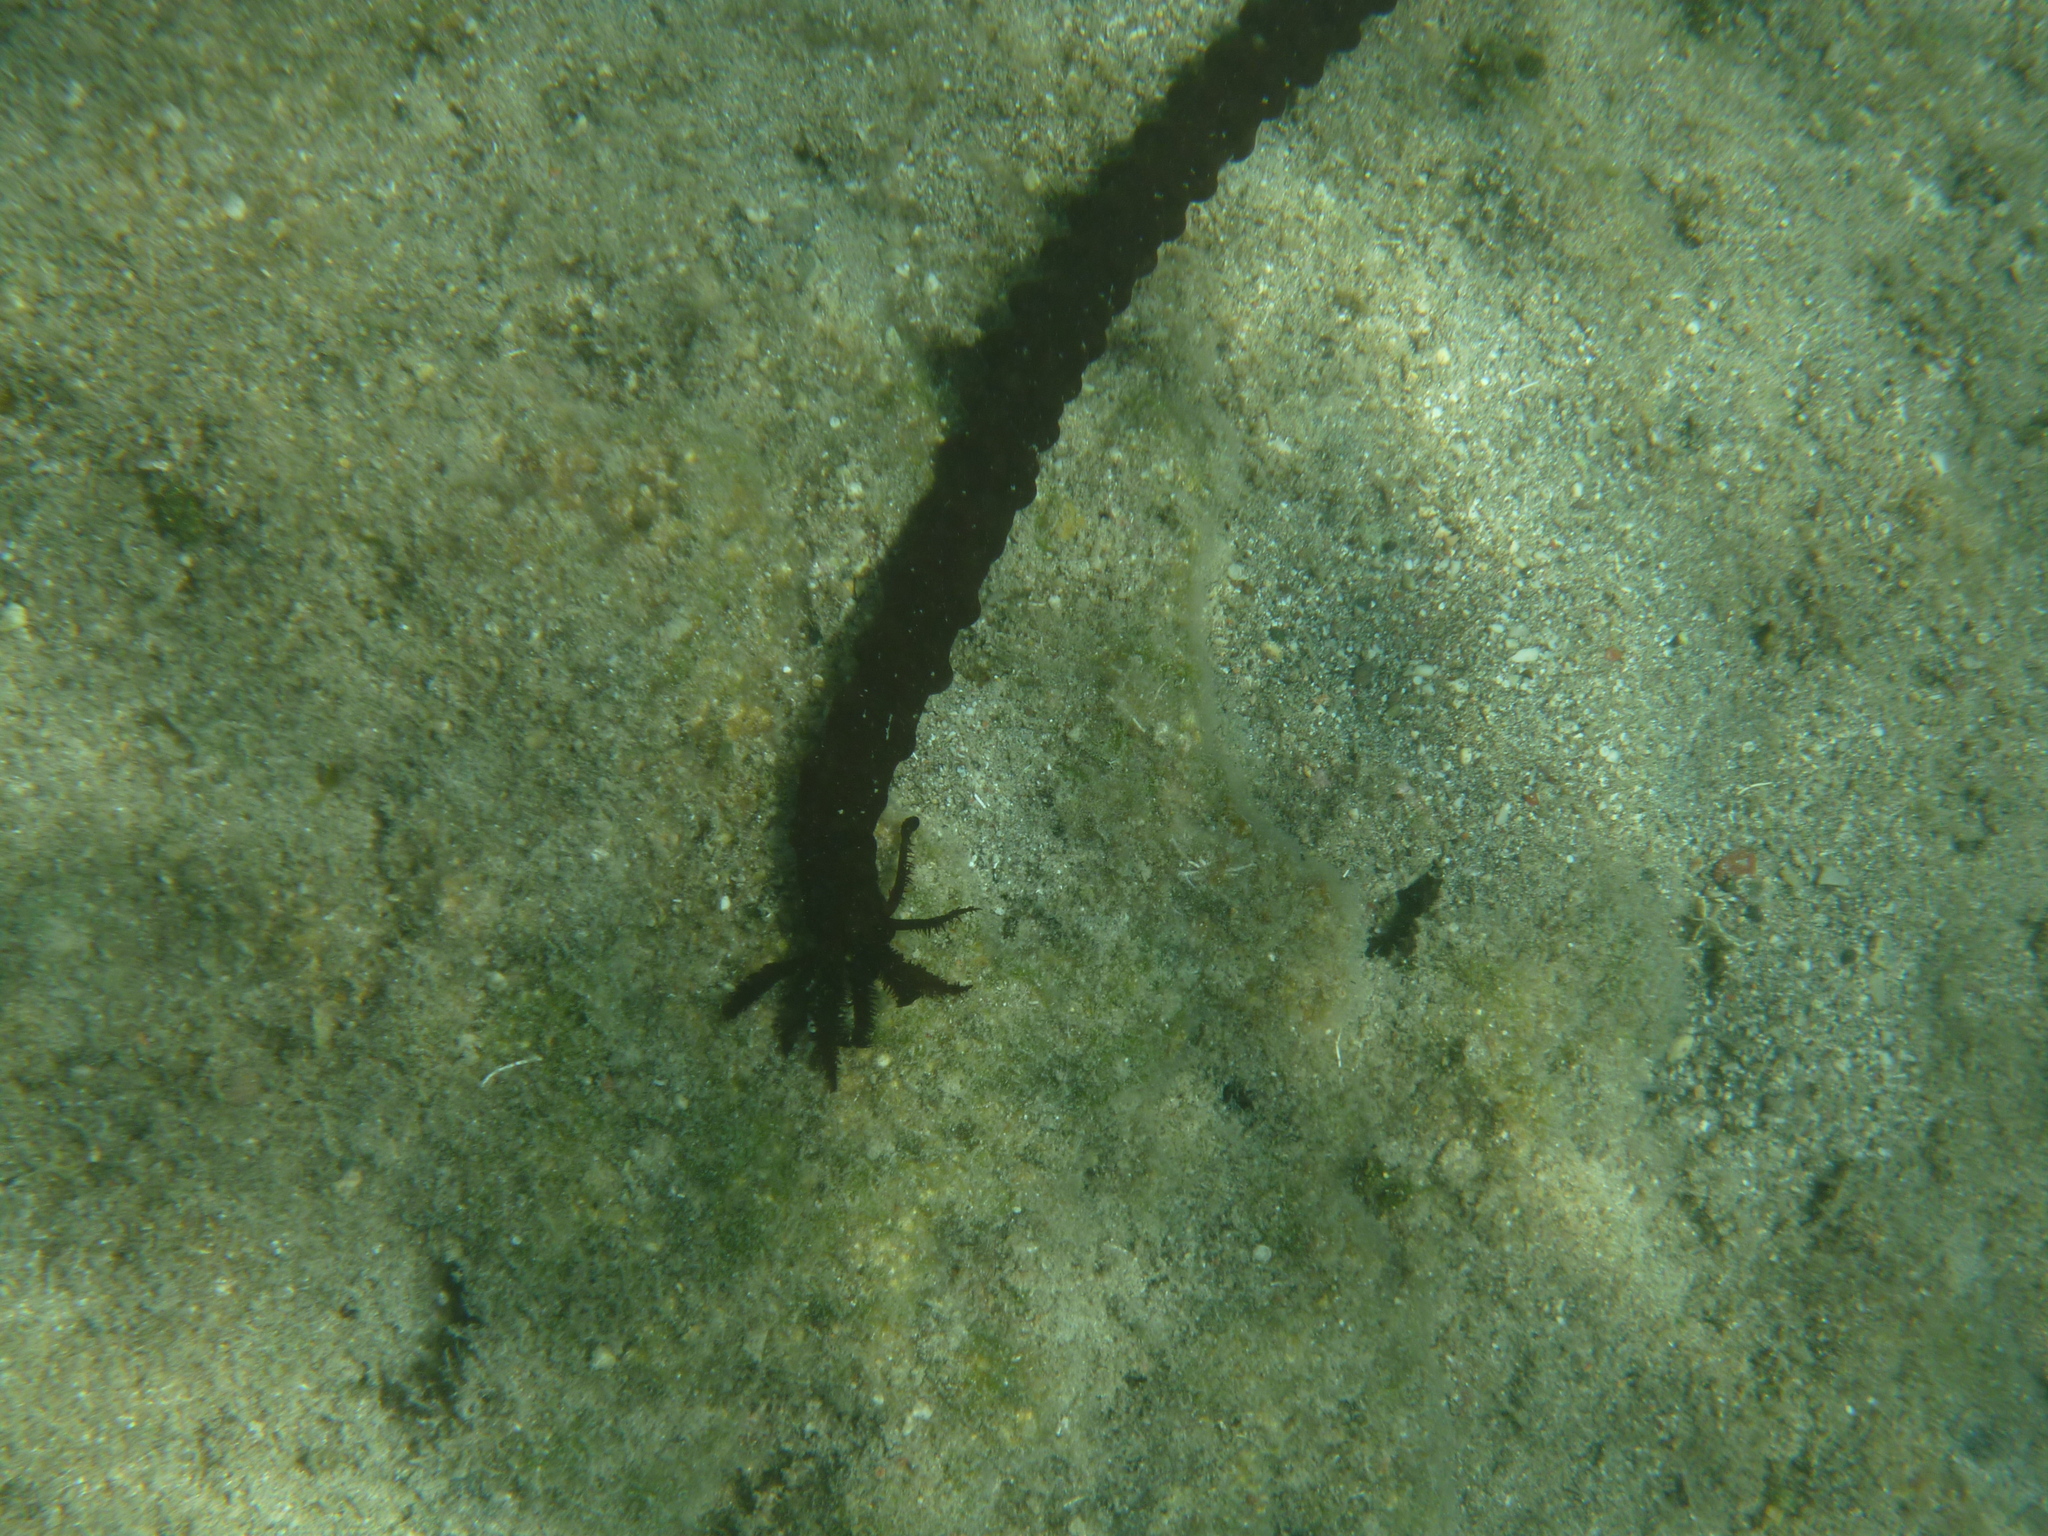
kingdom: Animalia
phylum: Echinodermata
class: Holothuroidea
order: Apodida
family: Synaptidae
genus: Synaptula
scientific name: Synaptula reciprocans
